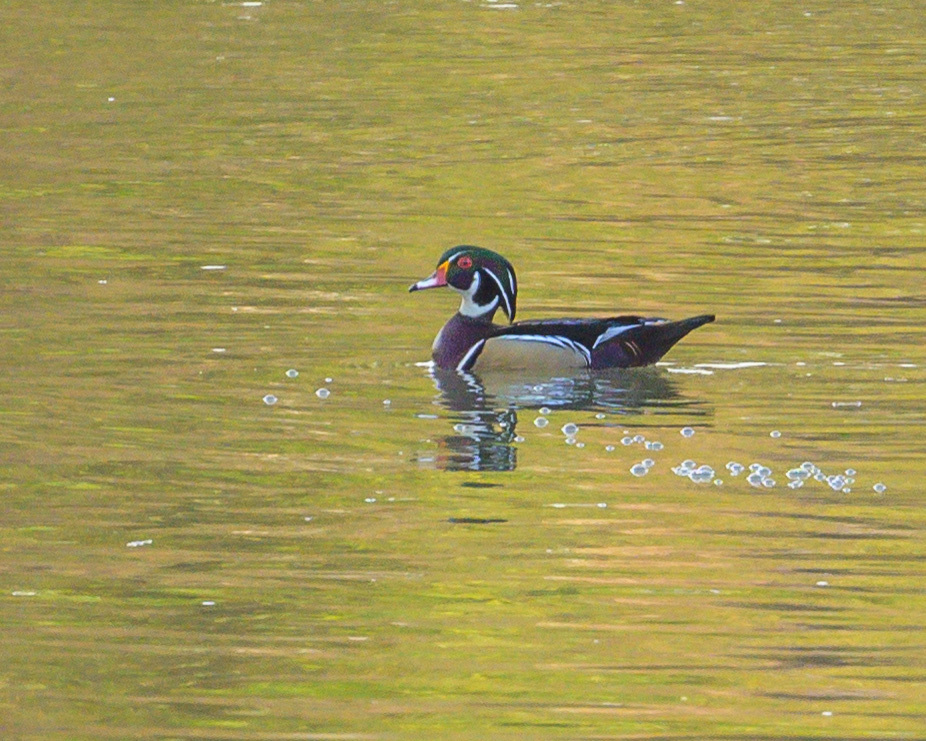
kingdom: Animalia
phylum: Chordata
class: Aves
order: Anseriformes
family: Anatidae
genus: Aix
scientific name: Aix sponsa
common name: Wood duck
